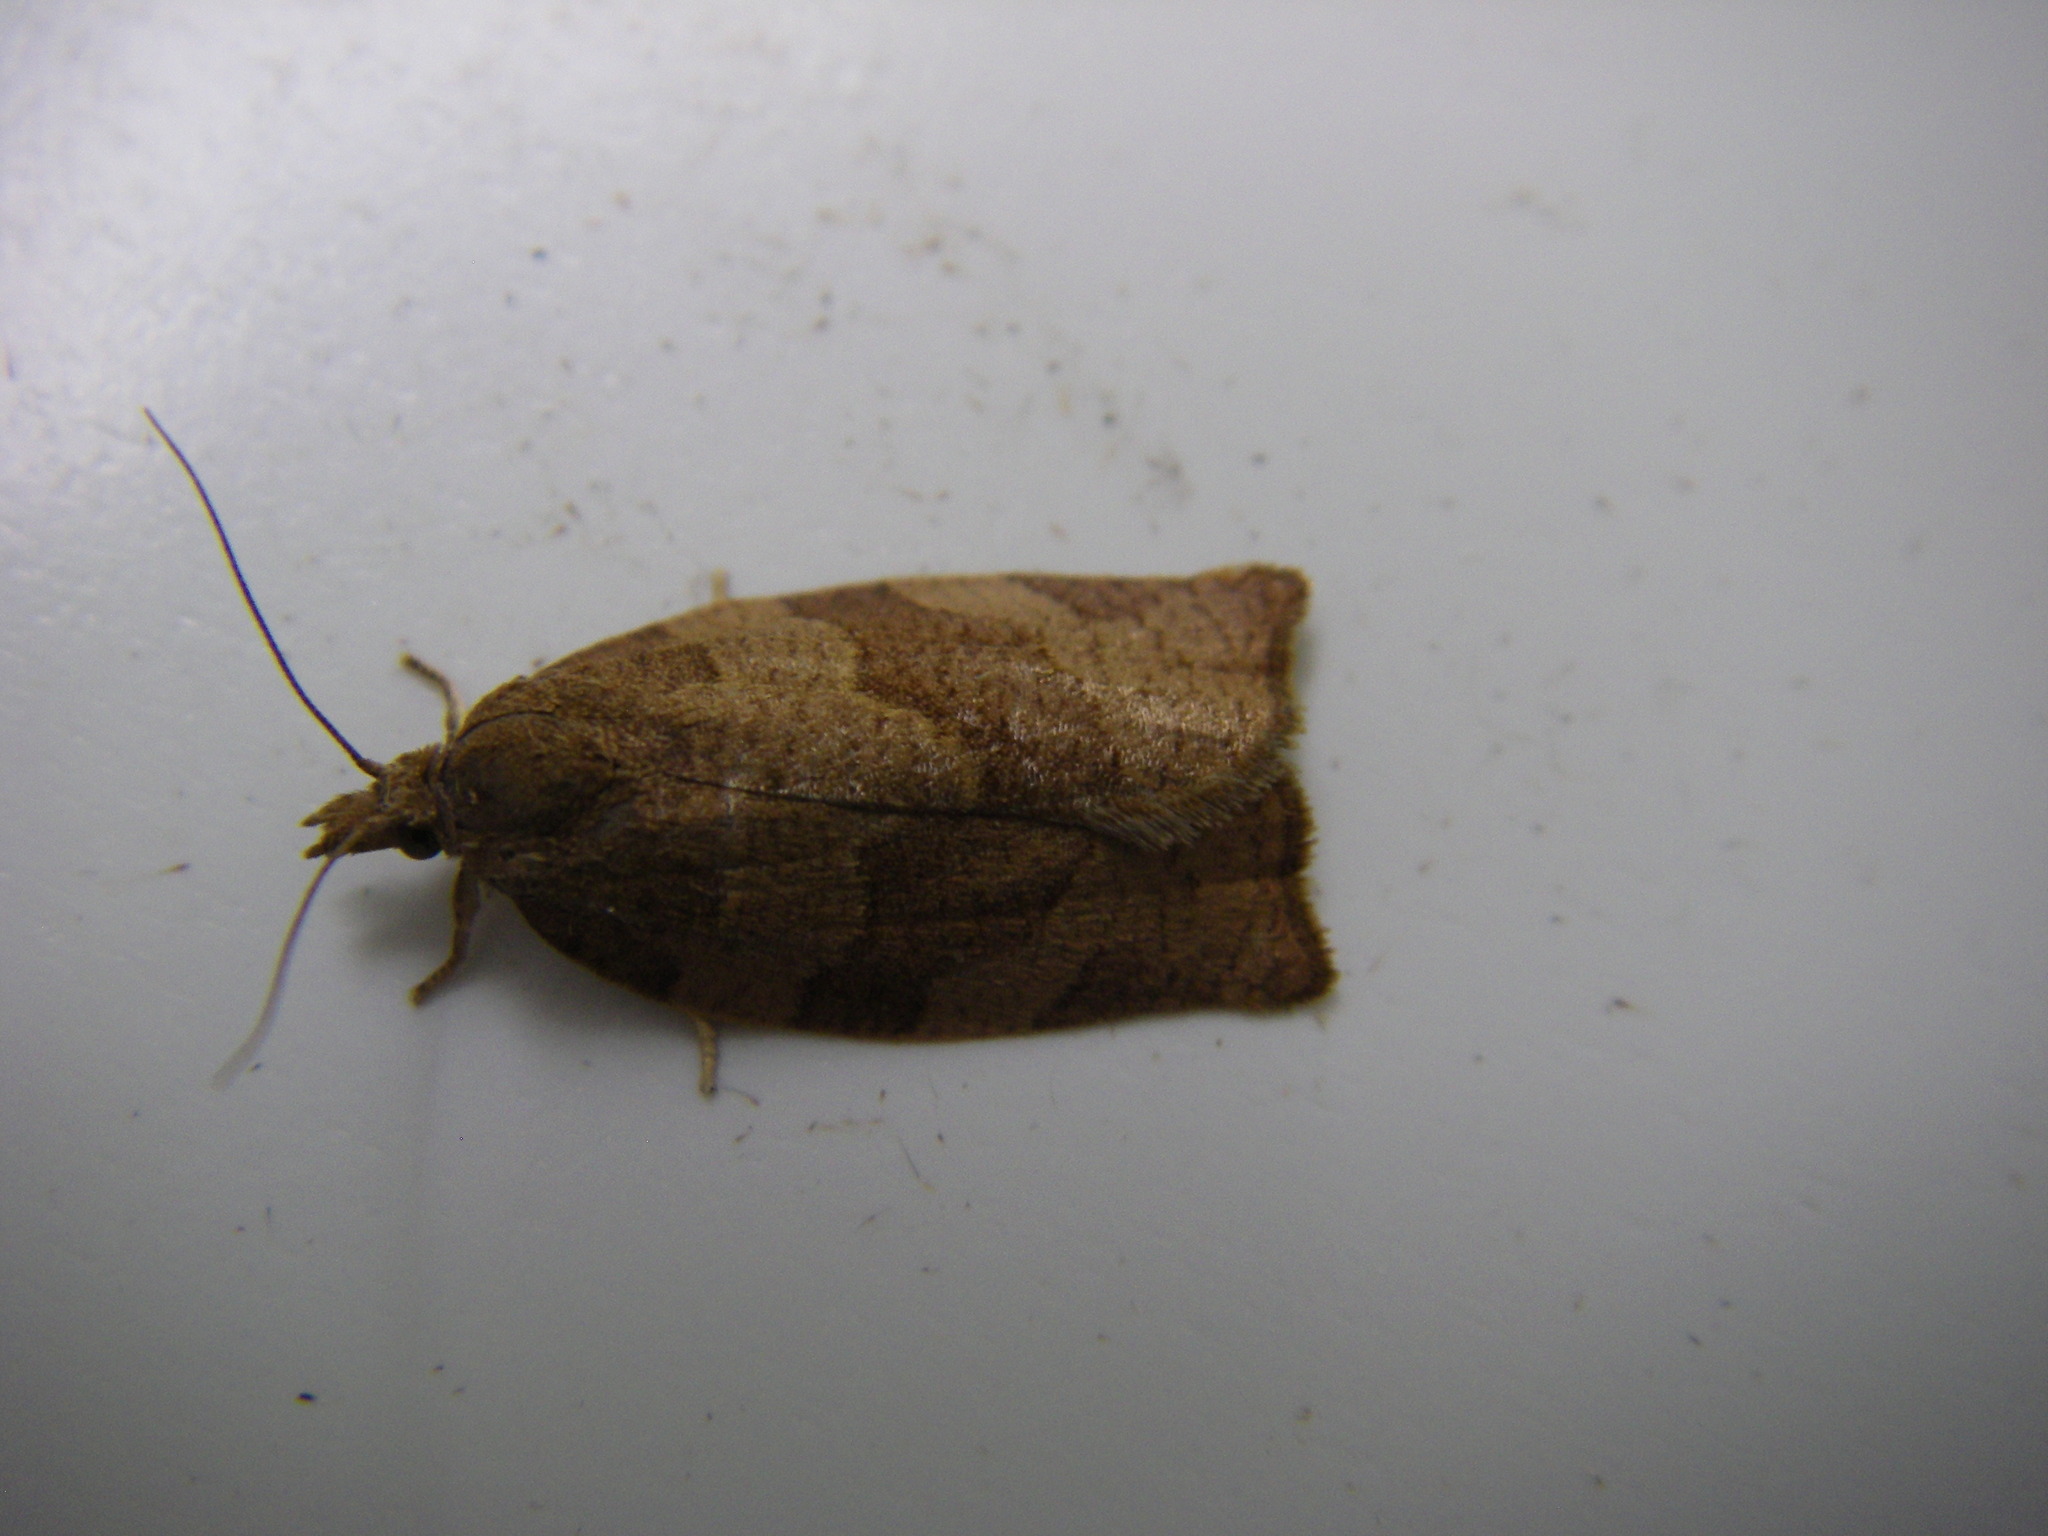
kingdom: Animalia
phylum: Arthropoda
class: Insecta
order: Lepidoptera
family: Tortricidae
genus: Pandemis
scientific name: Pandemis heparana
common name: Dark fruit-tree tortrix
